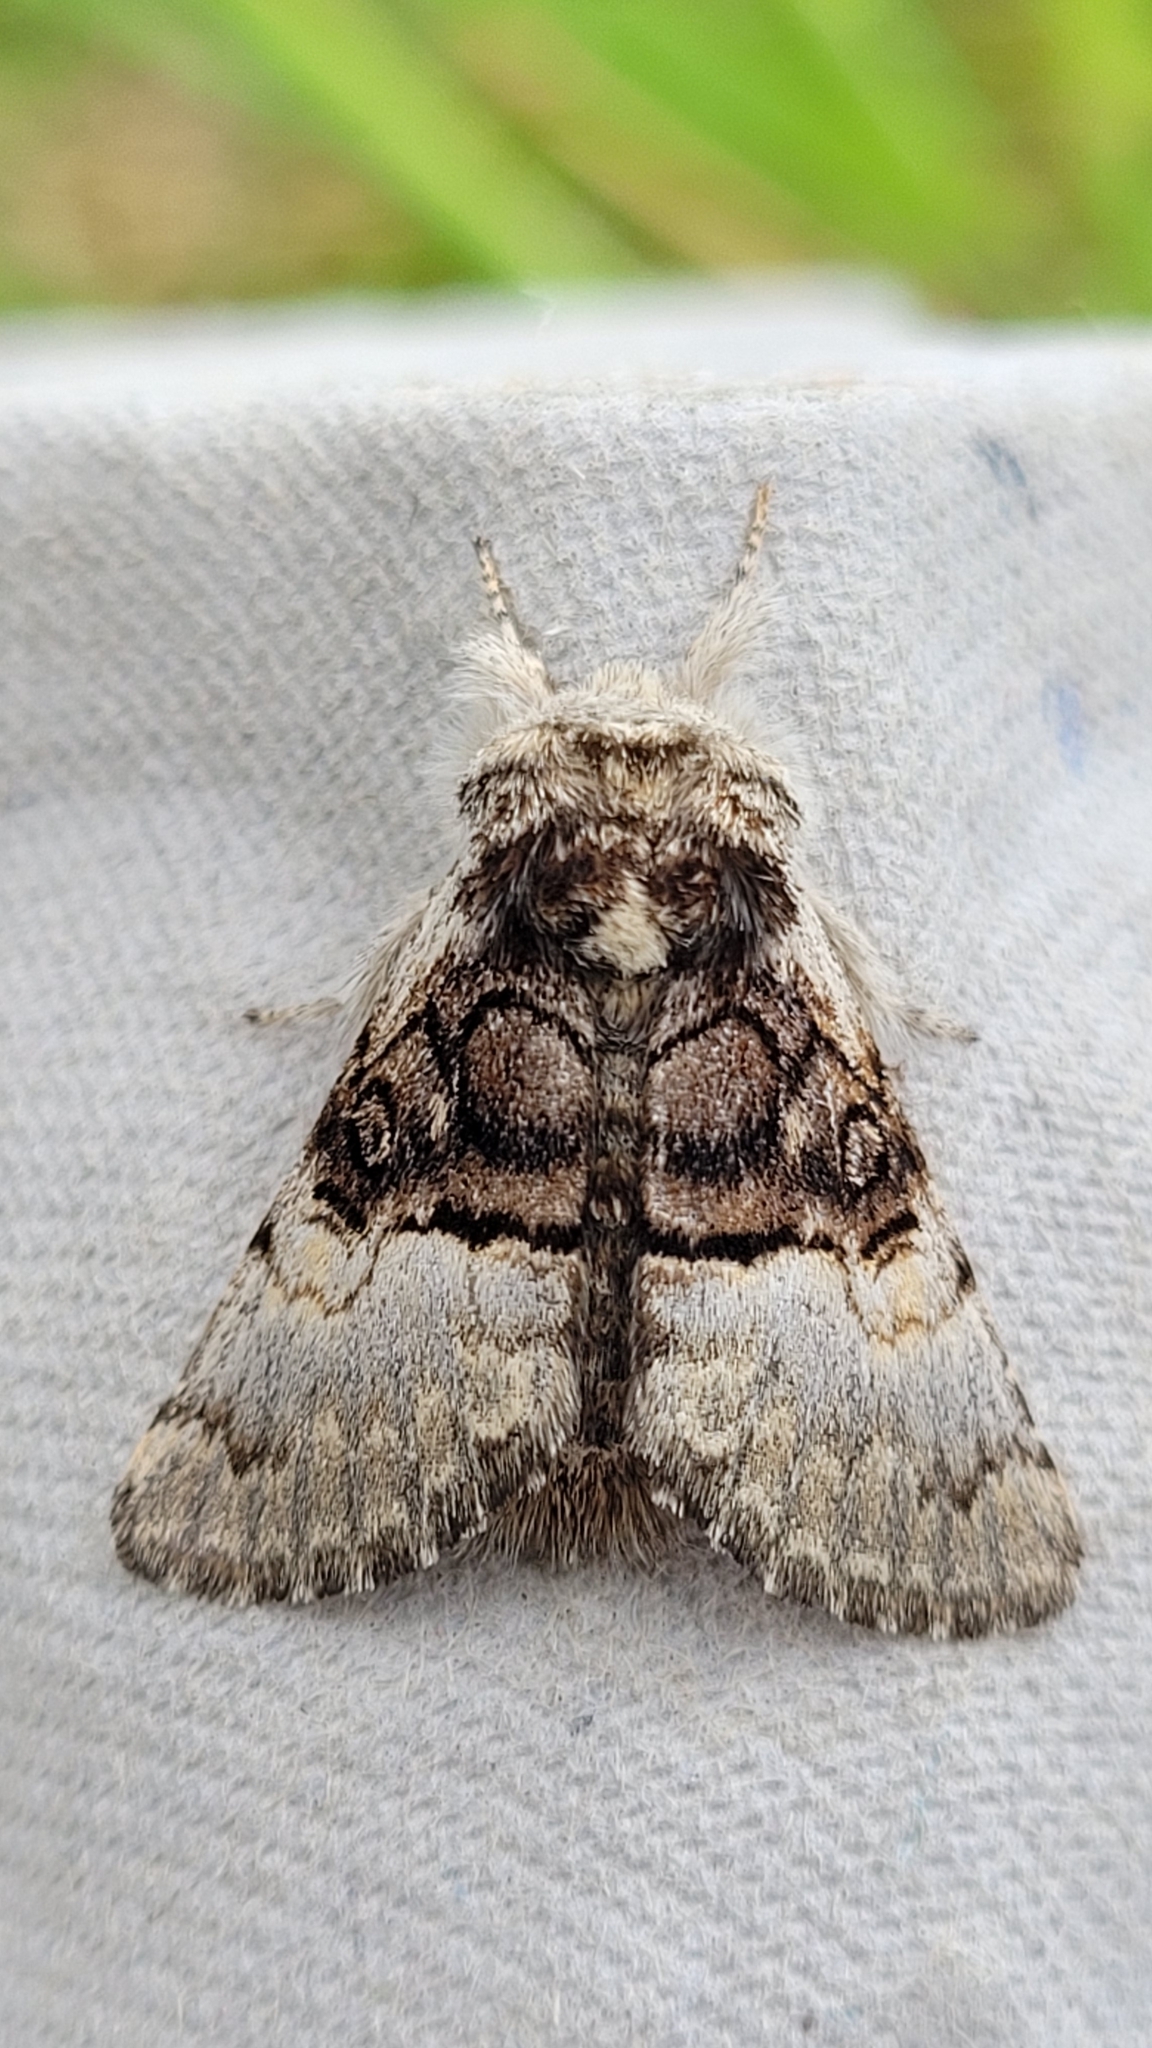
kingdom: Animalia
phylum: Arthropoda
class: Insecta
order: Lepidoptera
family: Noctuidae
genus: Colocasia
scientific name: Colocasia coryli
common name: Nut-tree tussock
